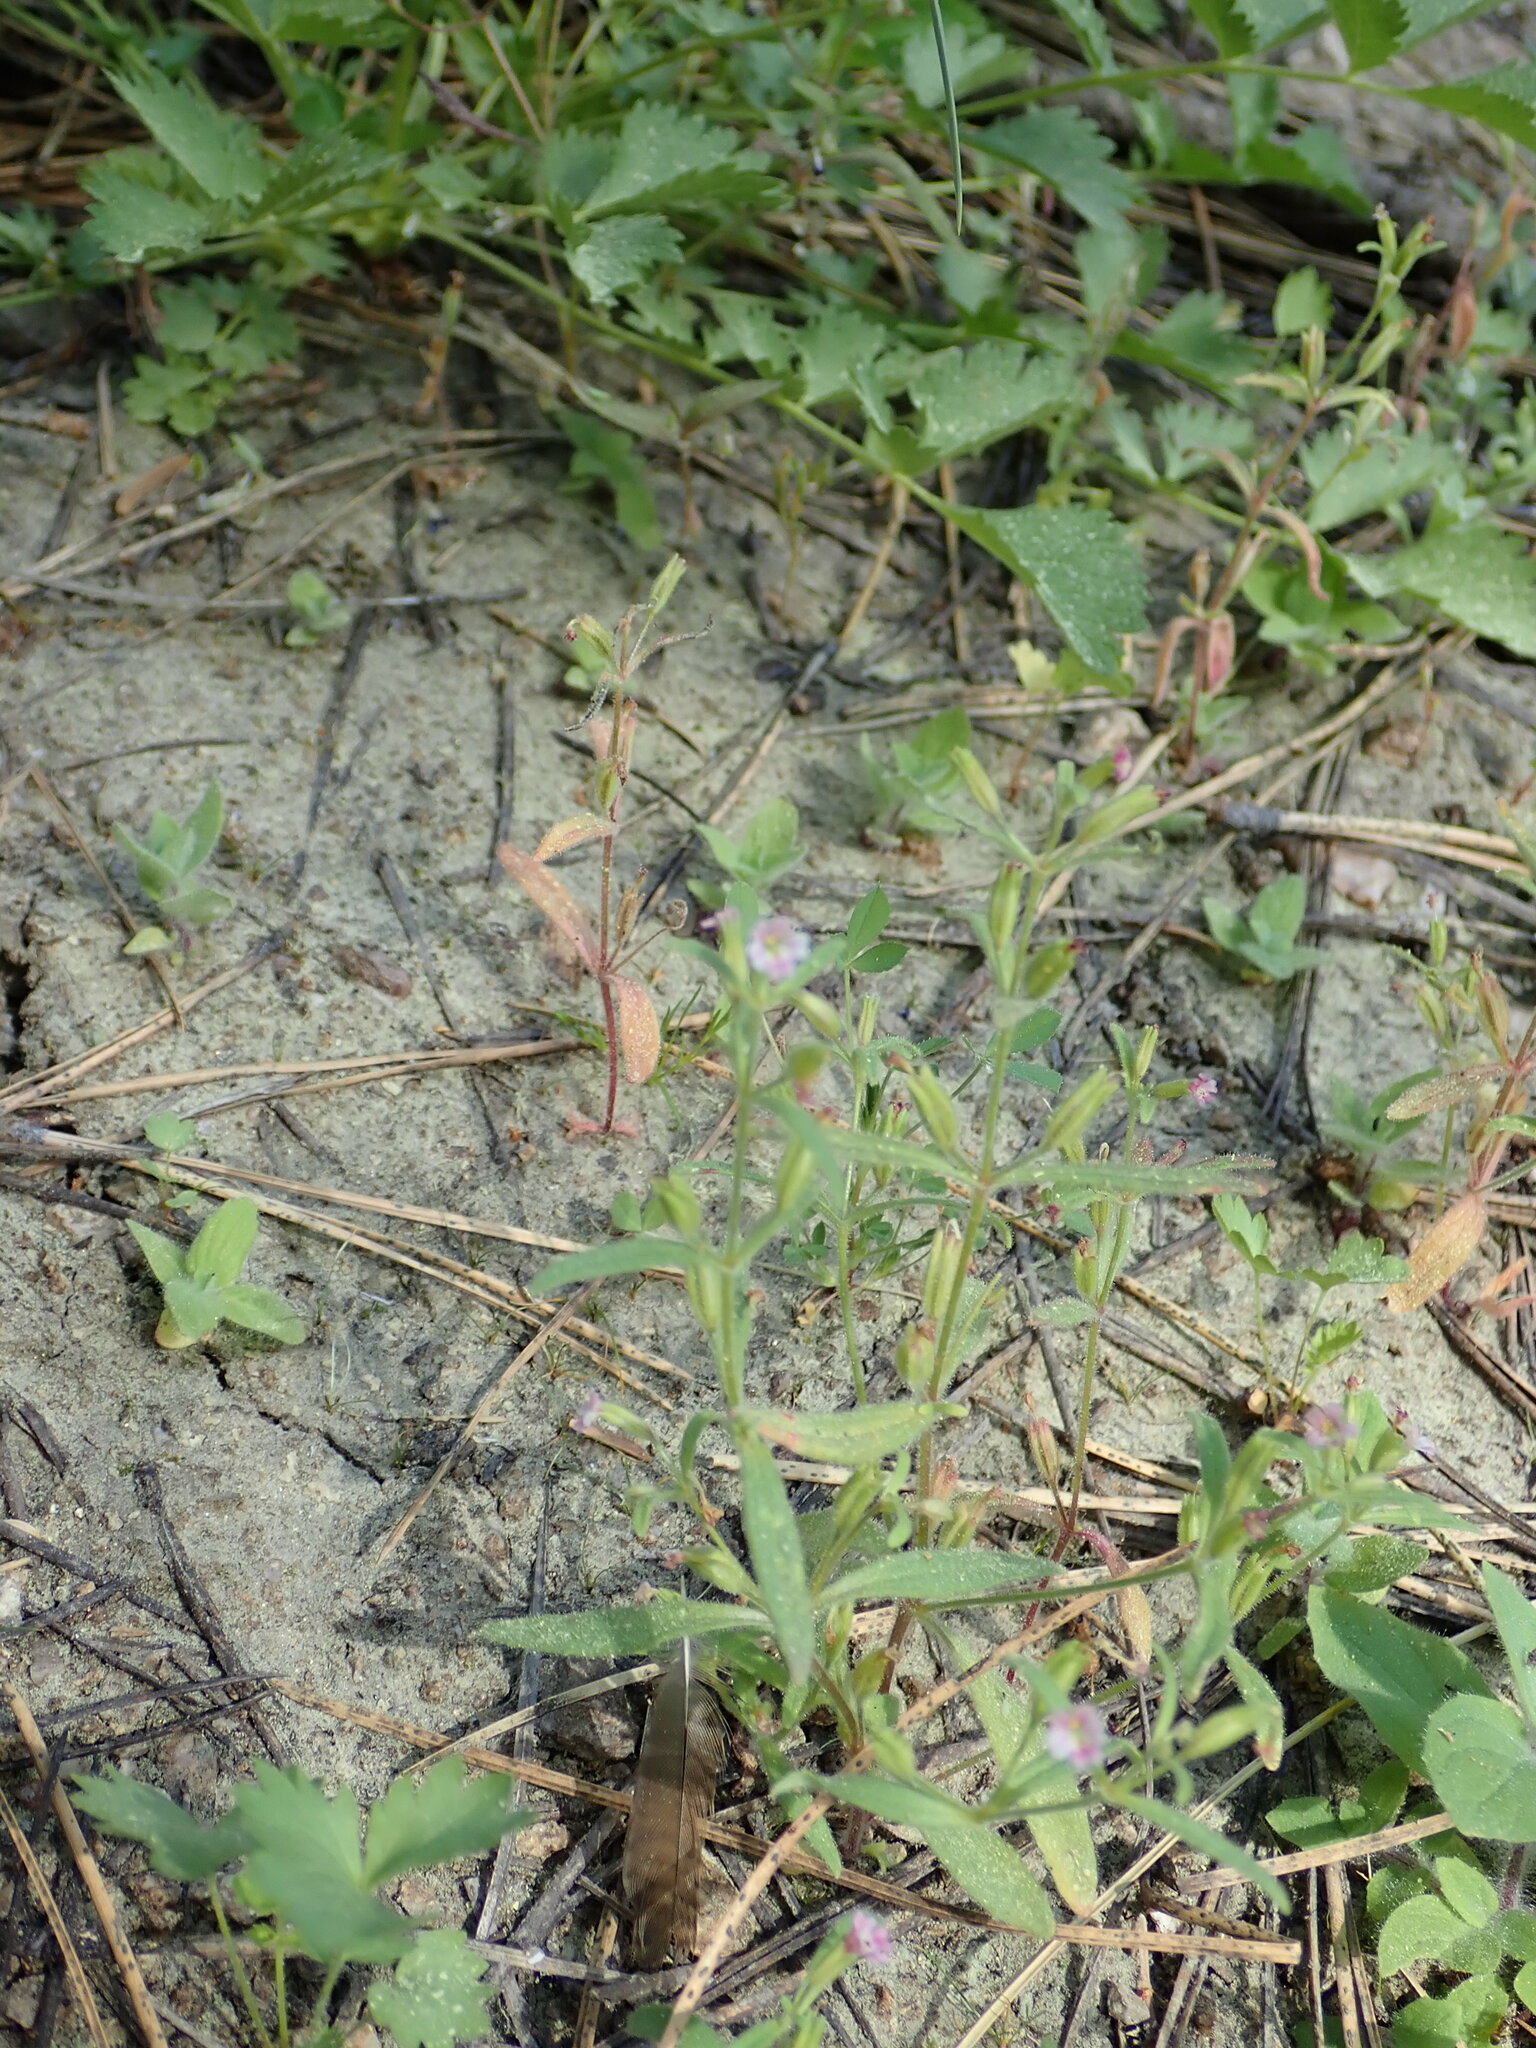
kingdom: Plantae
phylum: Tracheophyta
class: Magnoliopsida
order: Lamiales
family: Phrymaceae
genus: Erythranthe
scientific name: Erythranthe breweri
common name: Brewer's monkeyflower
